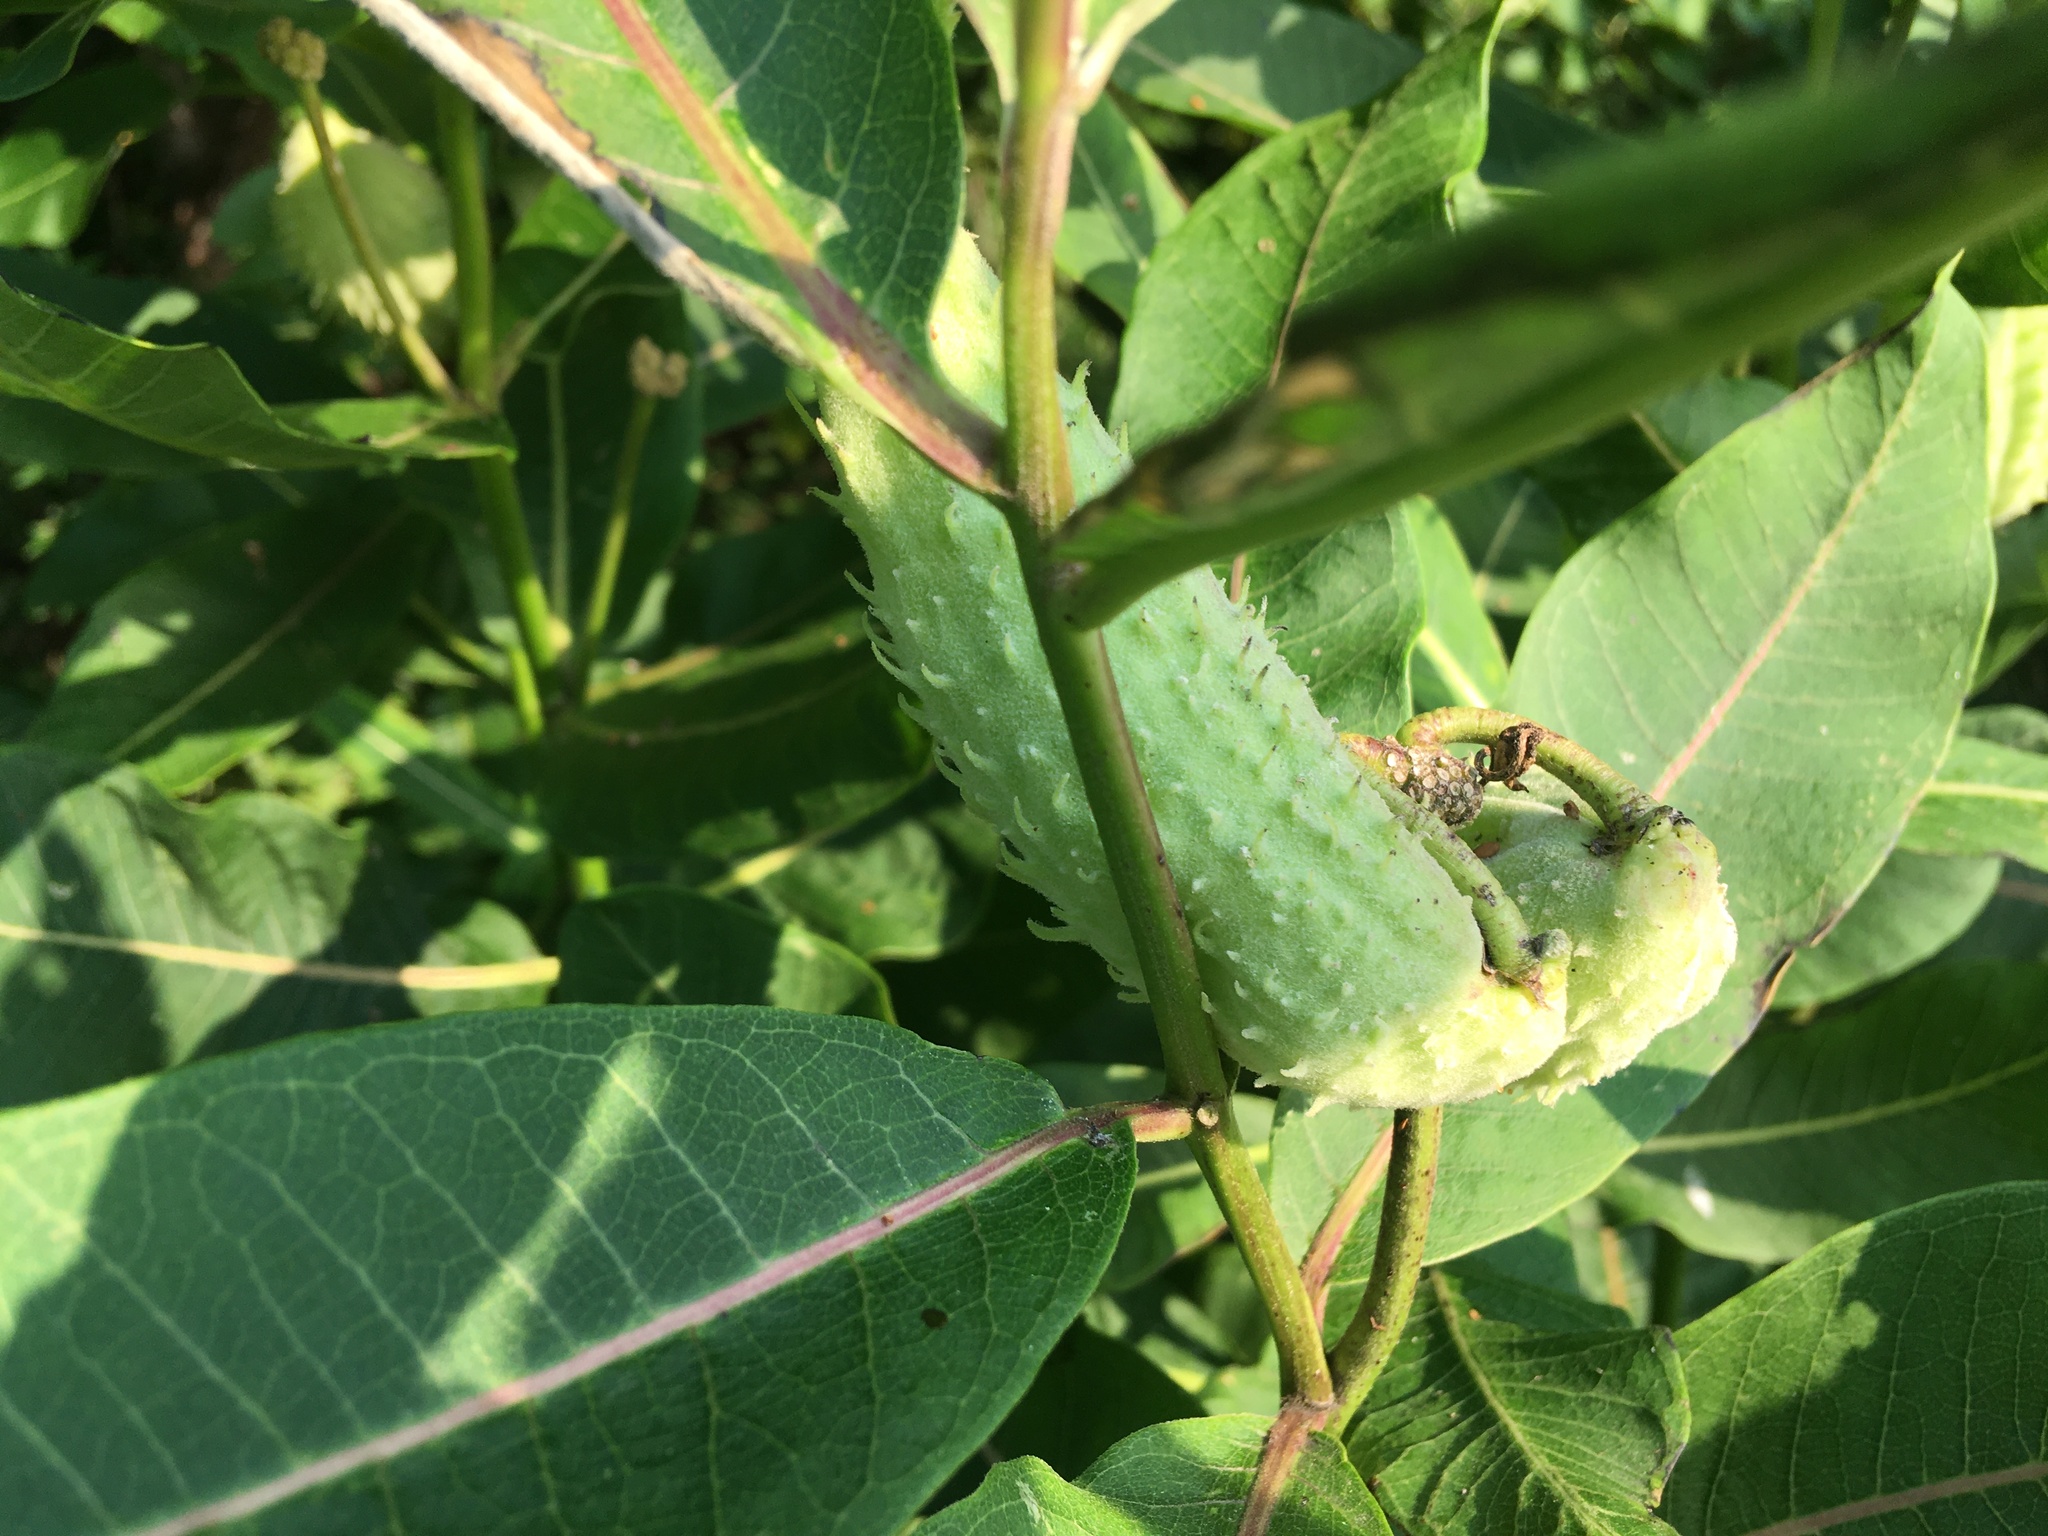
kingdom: Plantae
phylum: Tracheophyta
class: Magnoliopsida
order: Gentianales
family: Apocynaceae
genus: Asclepias
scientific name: Asclepias syriaca
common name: Common milkweed
